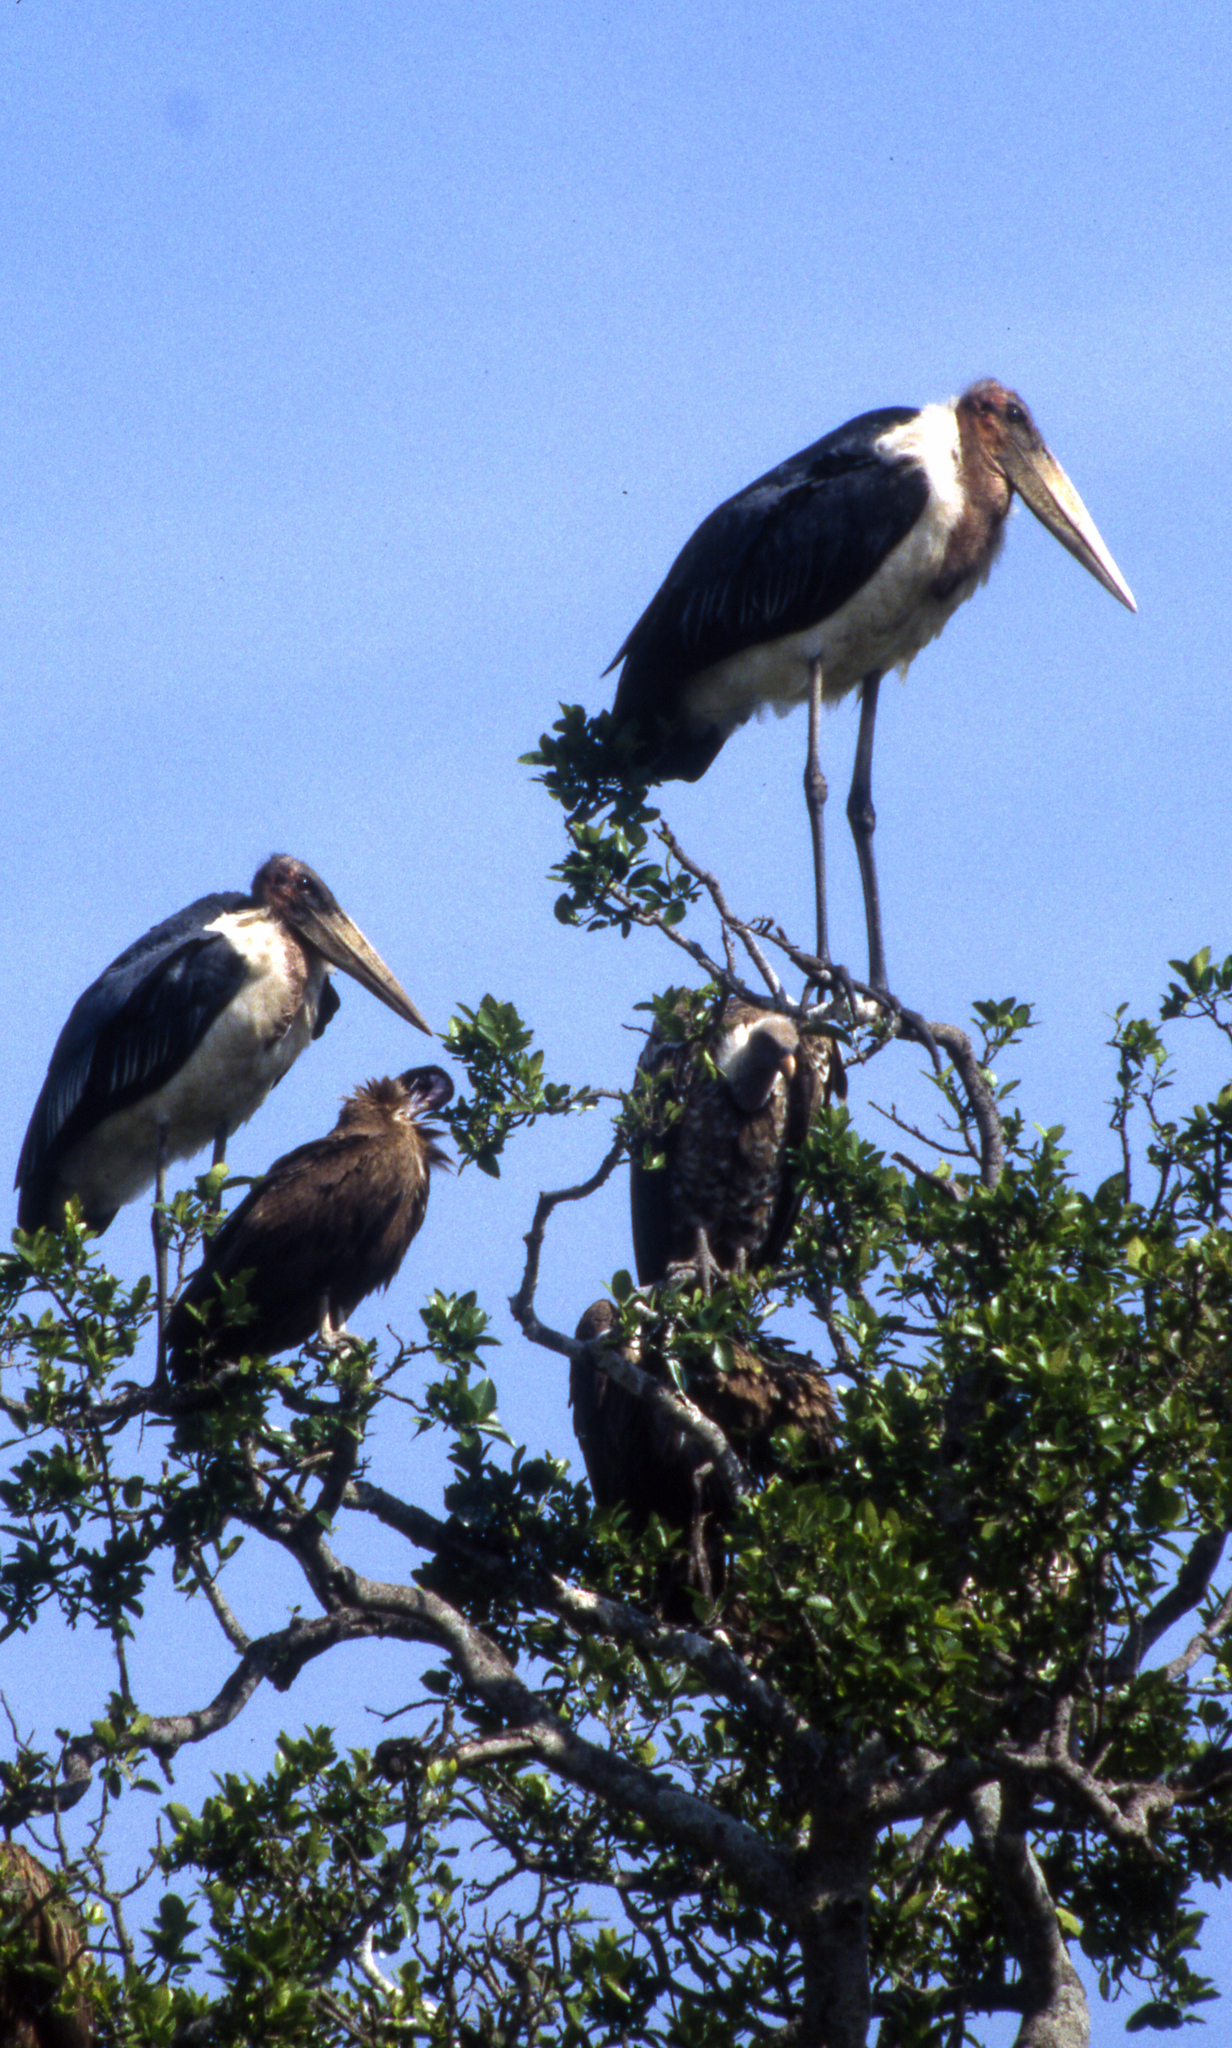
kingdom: Animalia
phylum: Chordata
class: Aves
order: Ciconiiformes
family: Ciconiidae
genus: Leptoptilos
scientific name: Leptoptilos crumenifer
